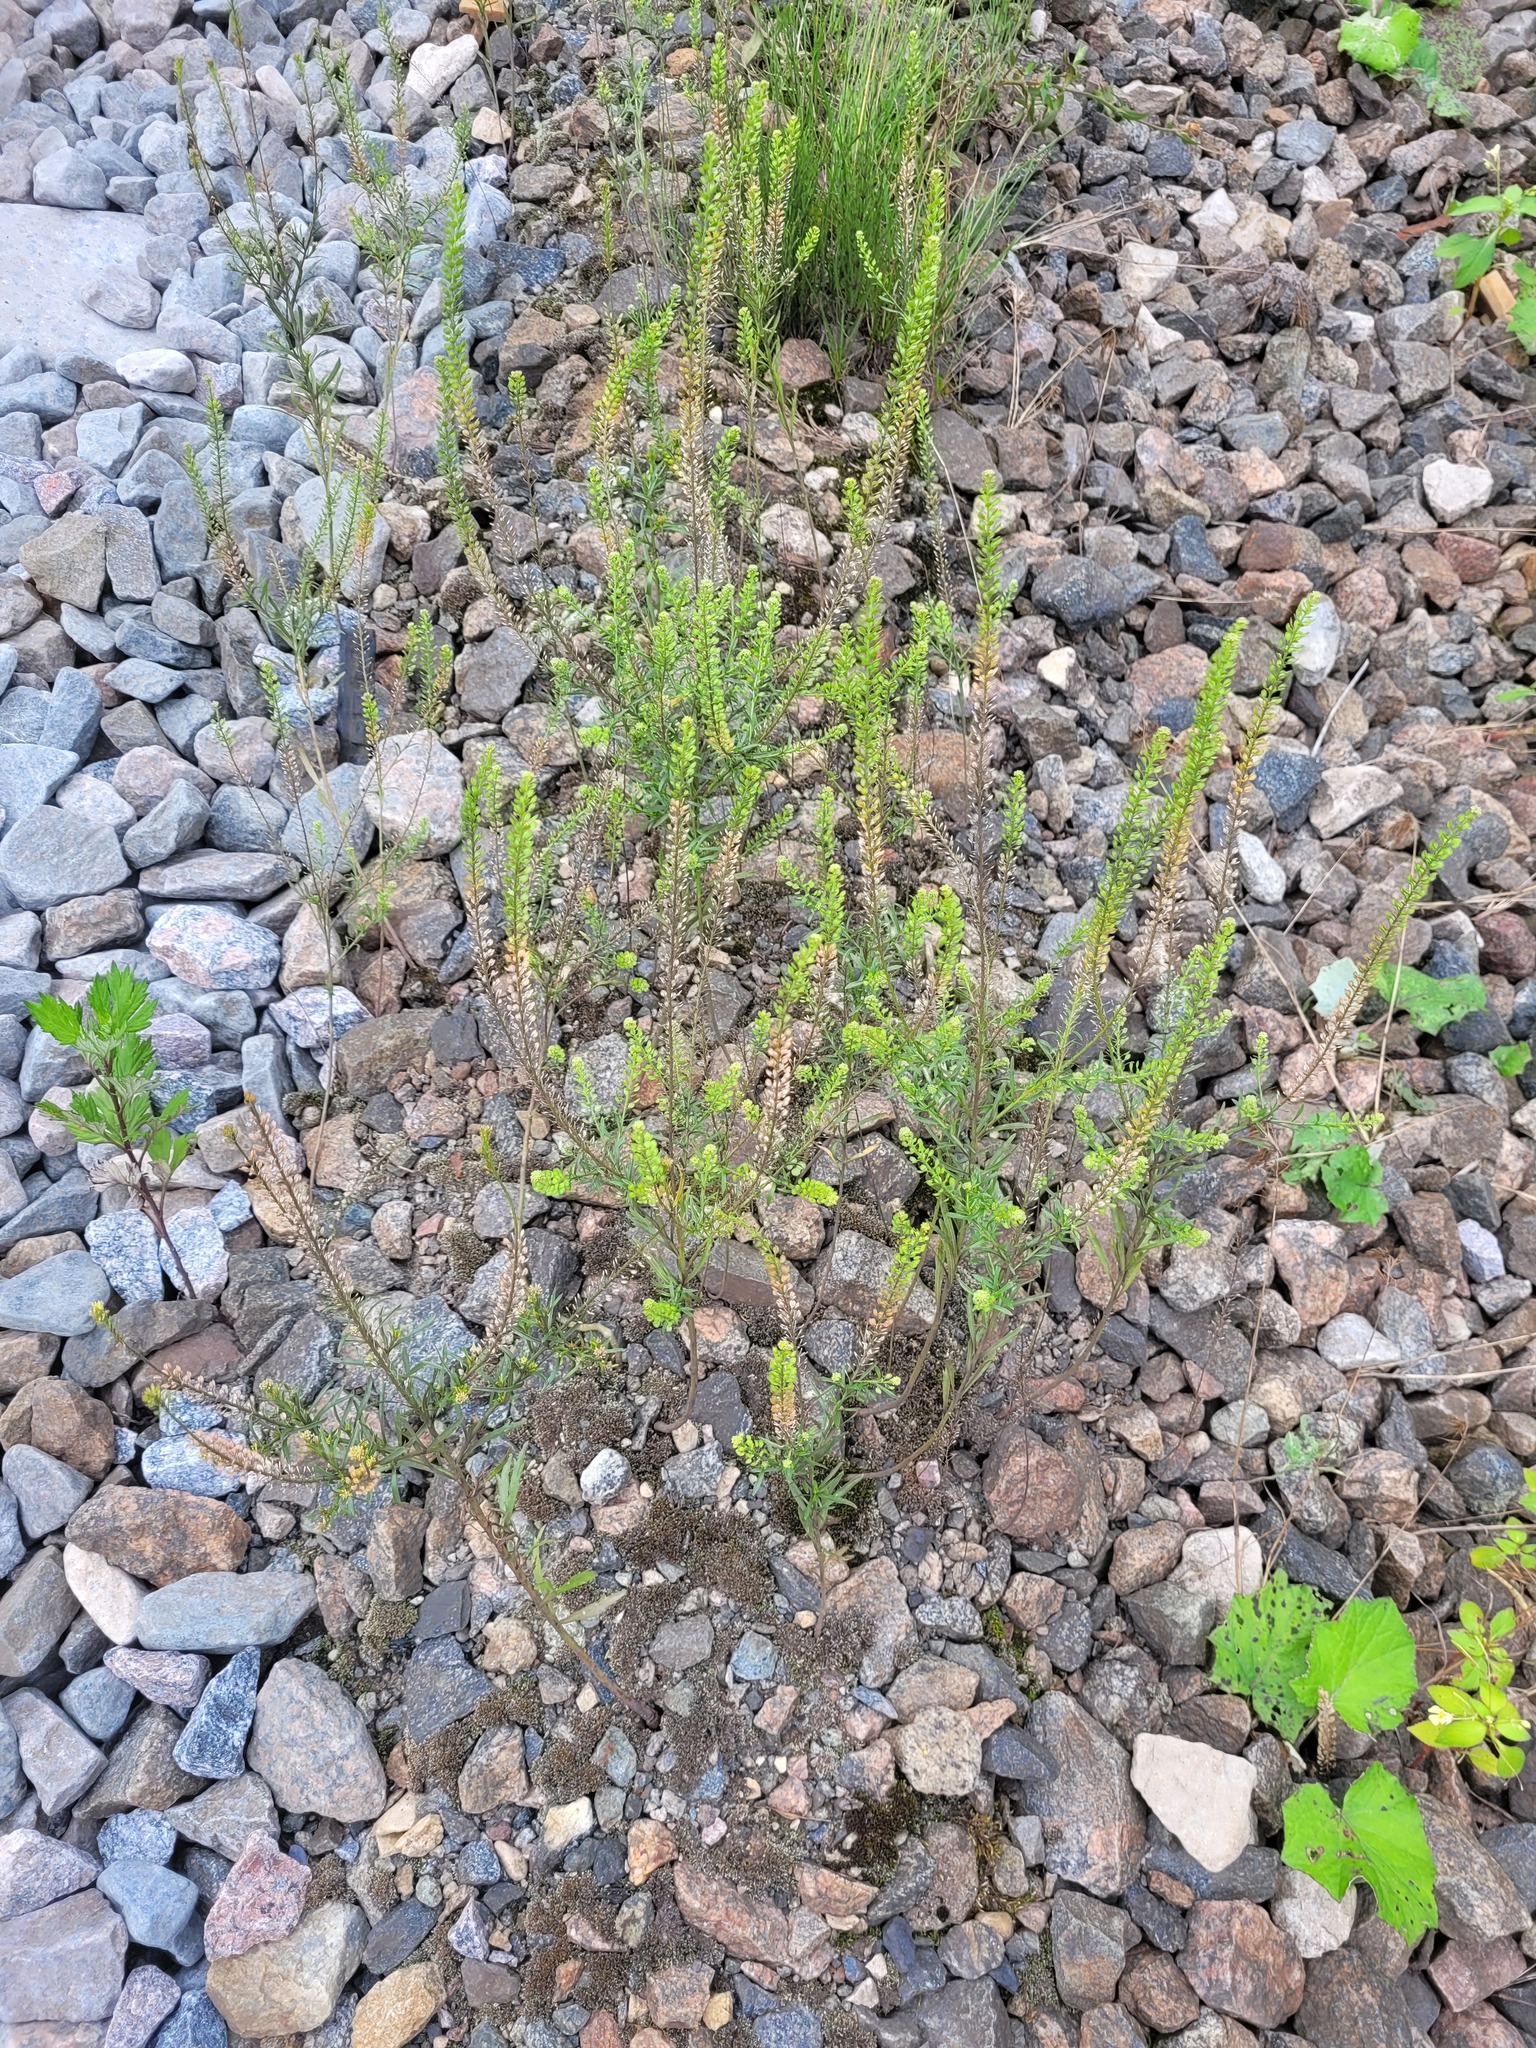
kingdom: Plantae
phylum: Tracheophyta
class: Magnoliopsida
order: Brassicales
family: Brassicaceae
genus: Lepidium
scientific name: Lepidium densiflorum
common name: Miner's pepperwort
